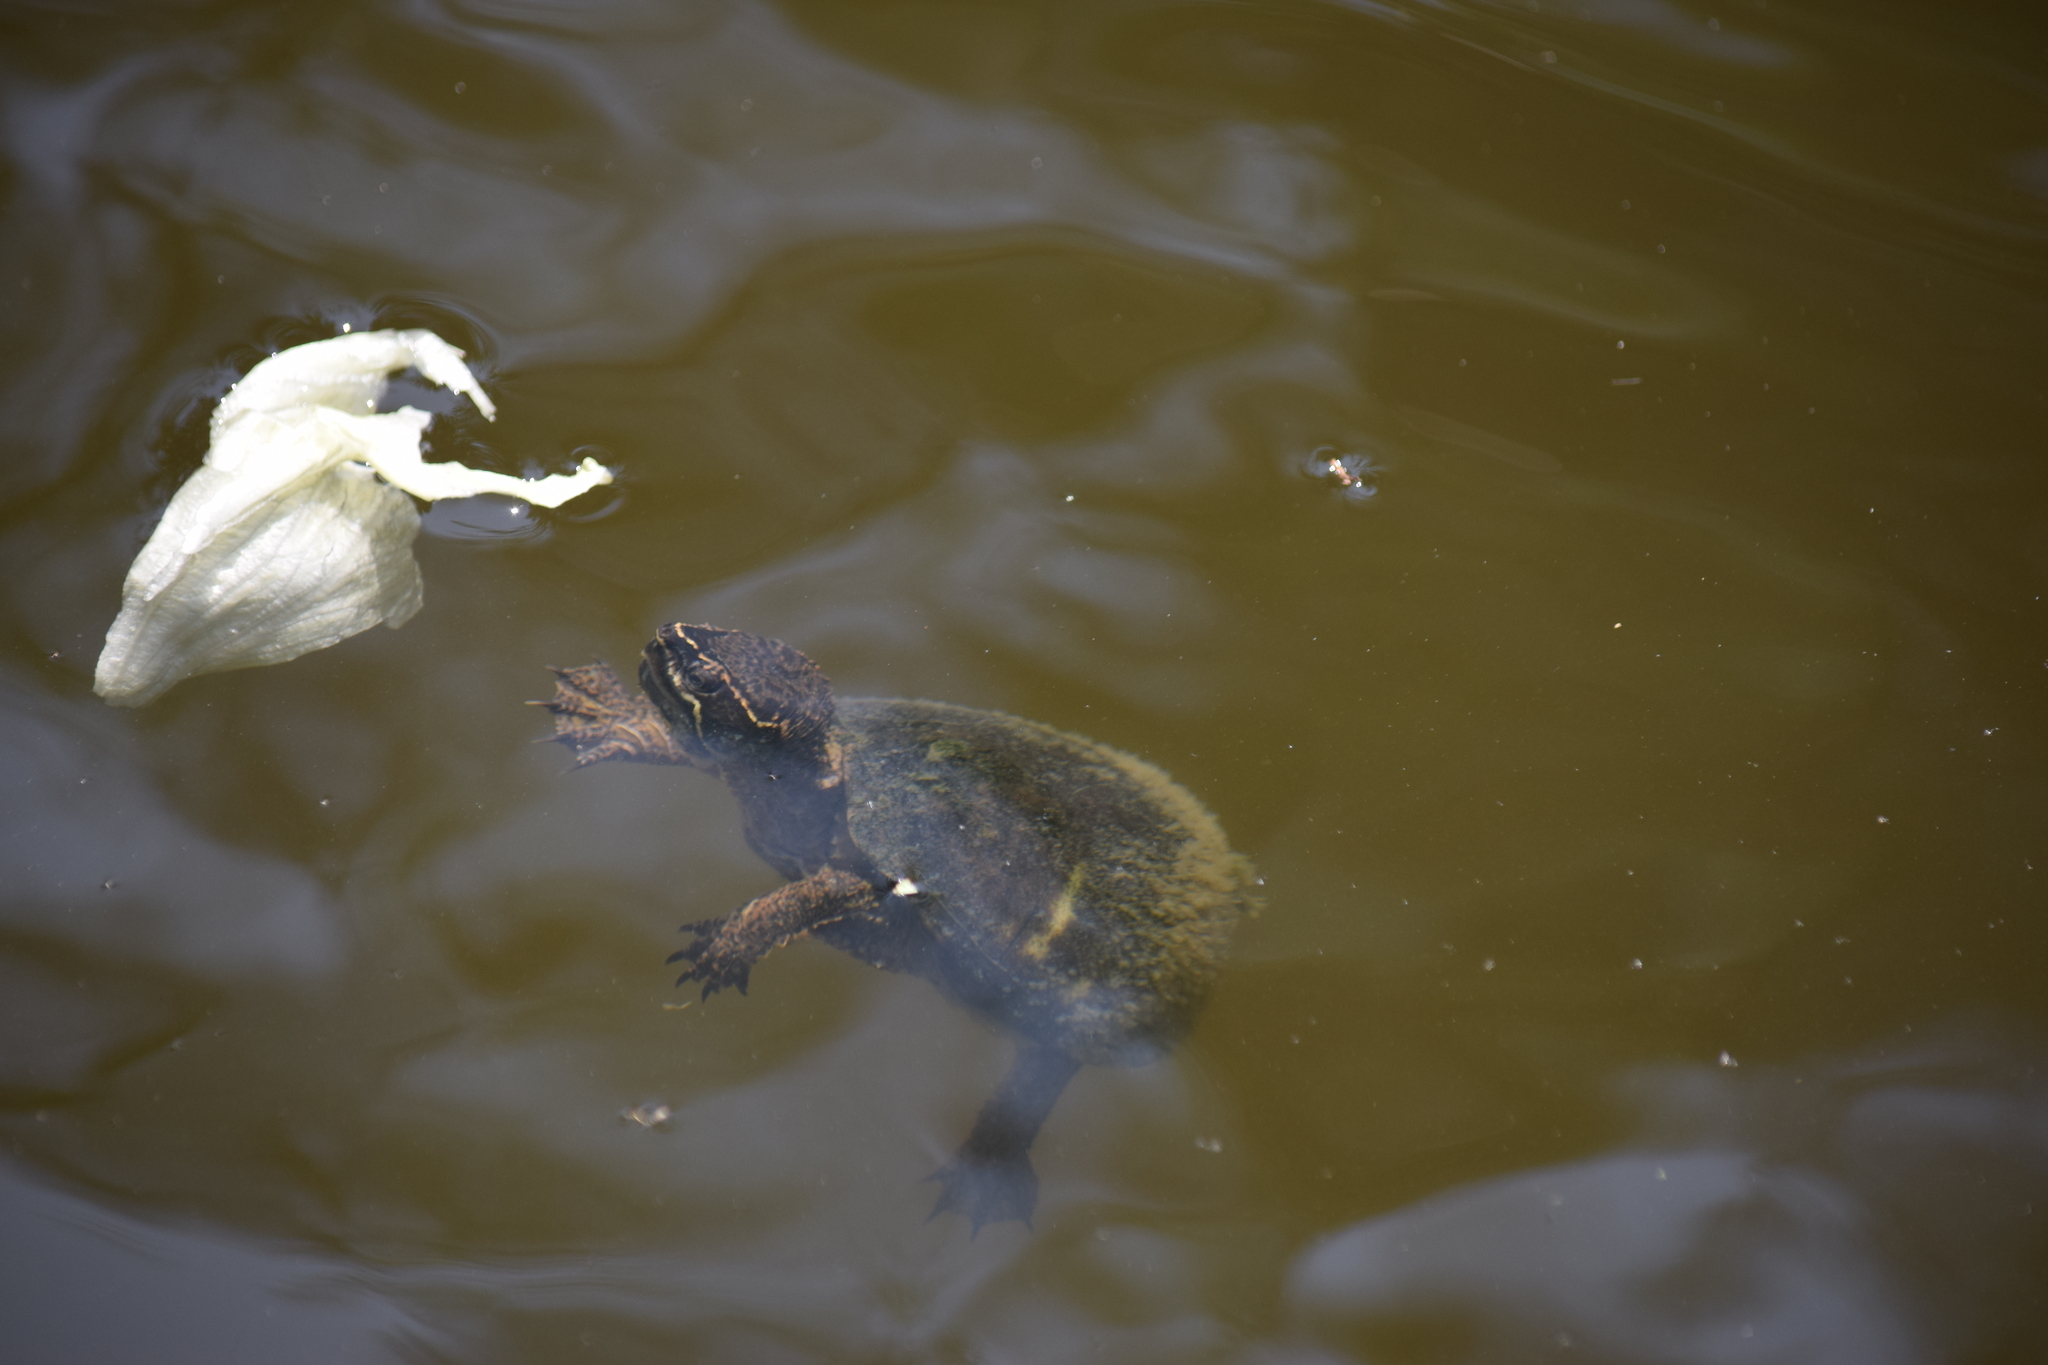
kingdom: Animalia
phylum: Chordata
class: Testudines
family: Kinosternidae
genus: Sternotherus
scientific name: Sternotherus odoratus
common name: Common musk turtle
